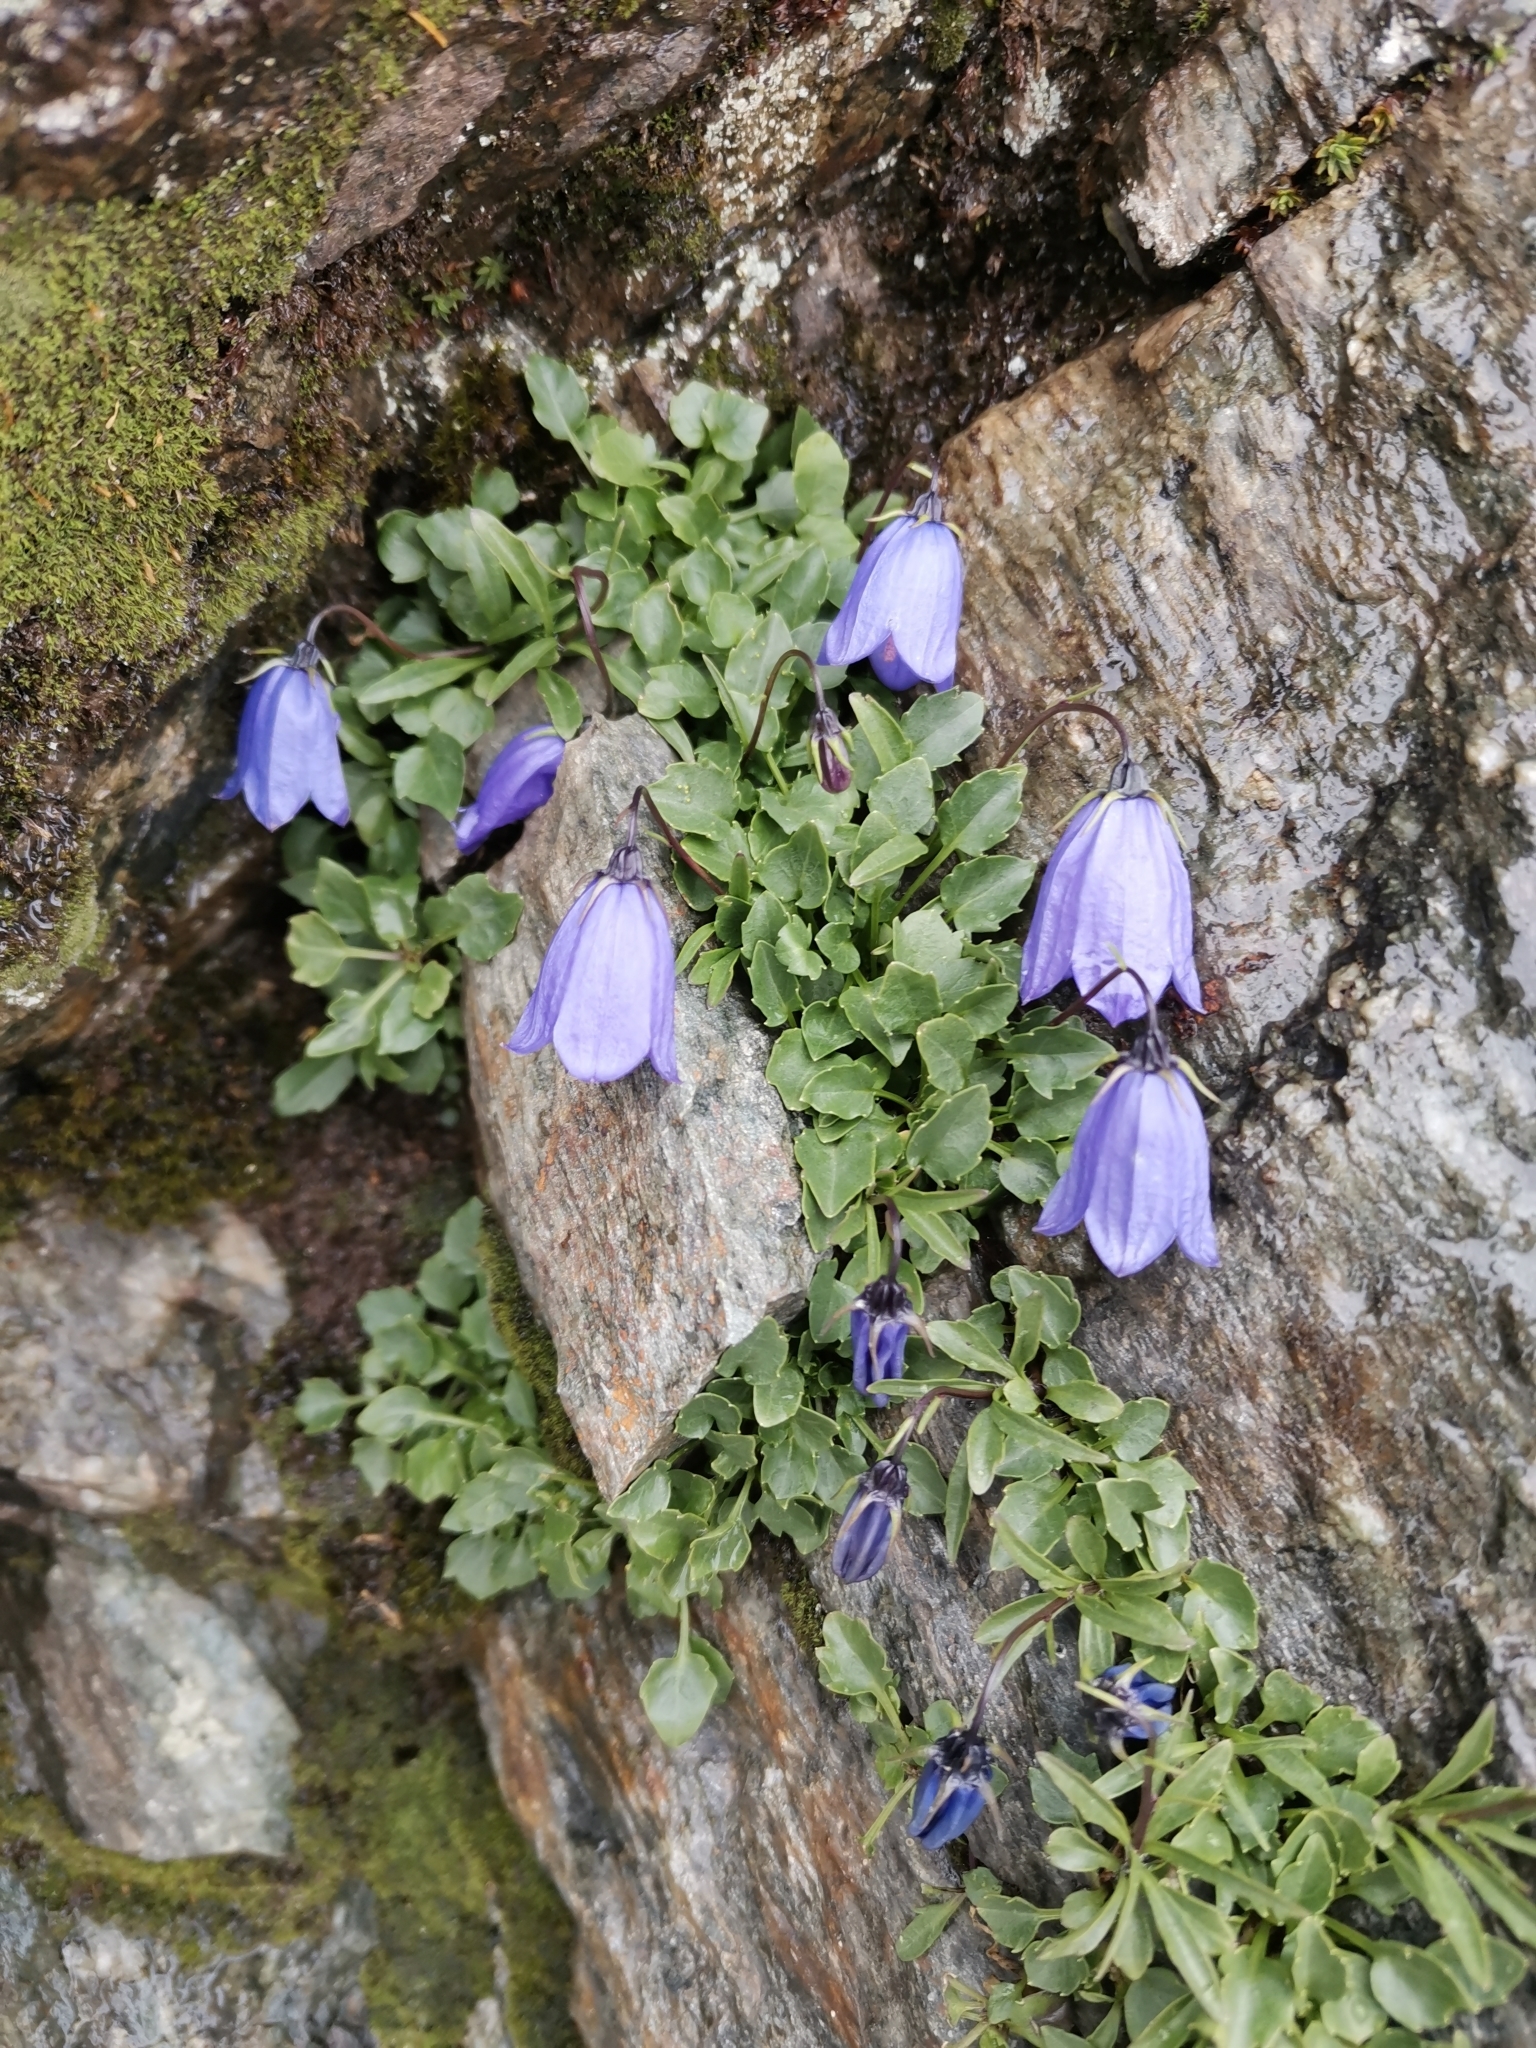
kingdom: Plantae
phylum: Tracheophyta
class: Magnoliopsida
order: Asterales
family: Campanulaceae
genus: Campanula
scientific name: Campanula cochleariifolia
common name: Fairies'-thimbles
